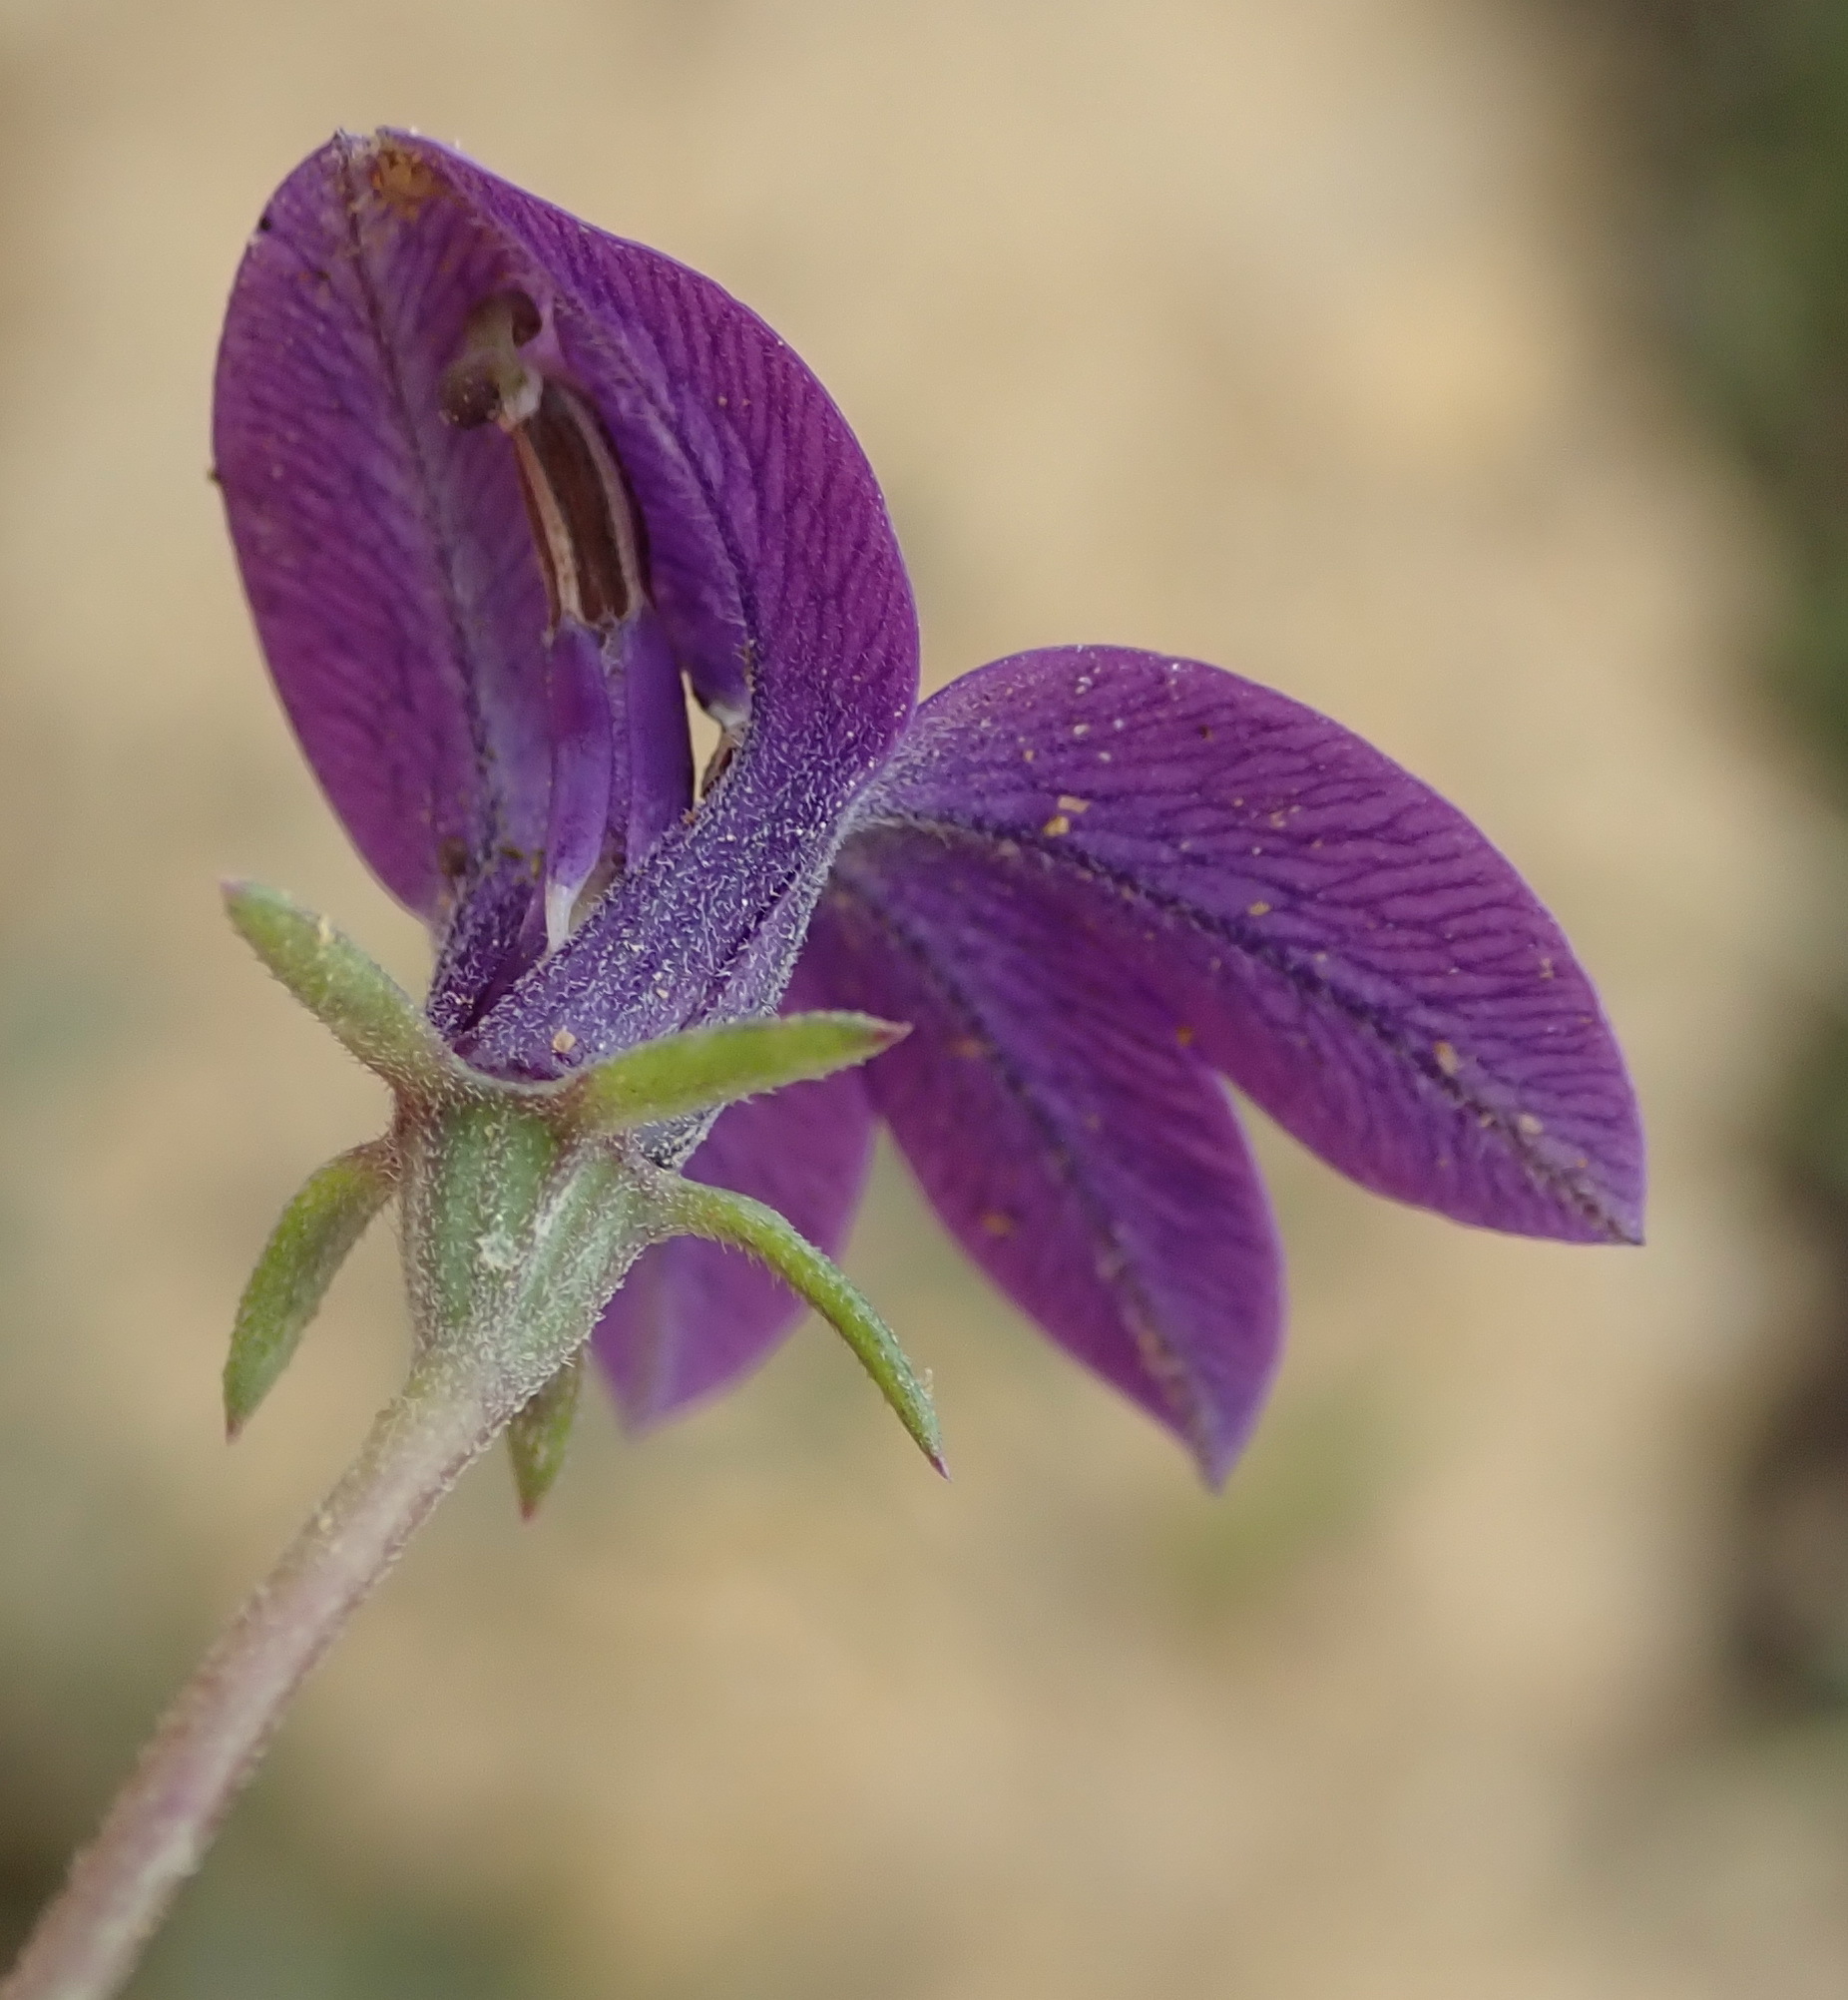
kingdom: Plantae
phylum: Tracheophyta
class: Magnoliopsida
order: Asterales
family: Campanulaceae
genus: Monopsis
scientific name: Monopsis unidentata
